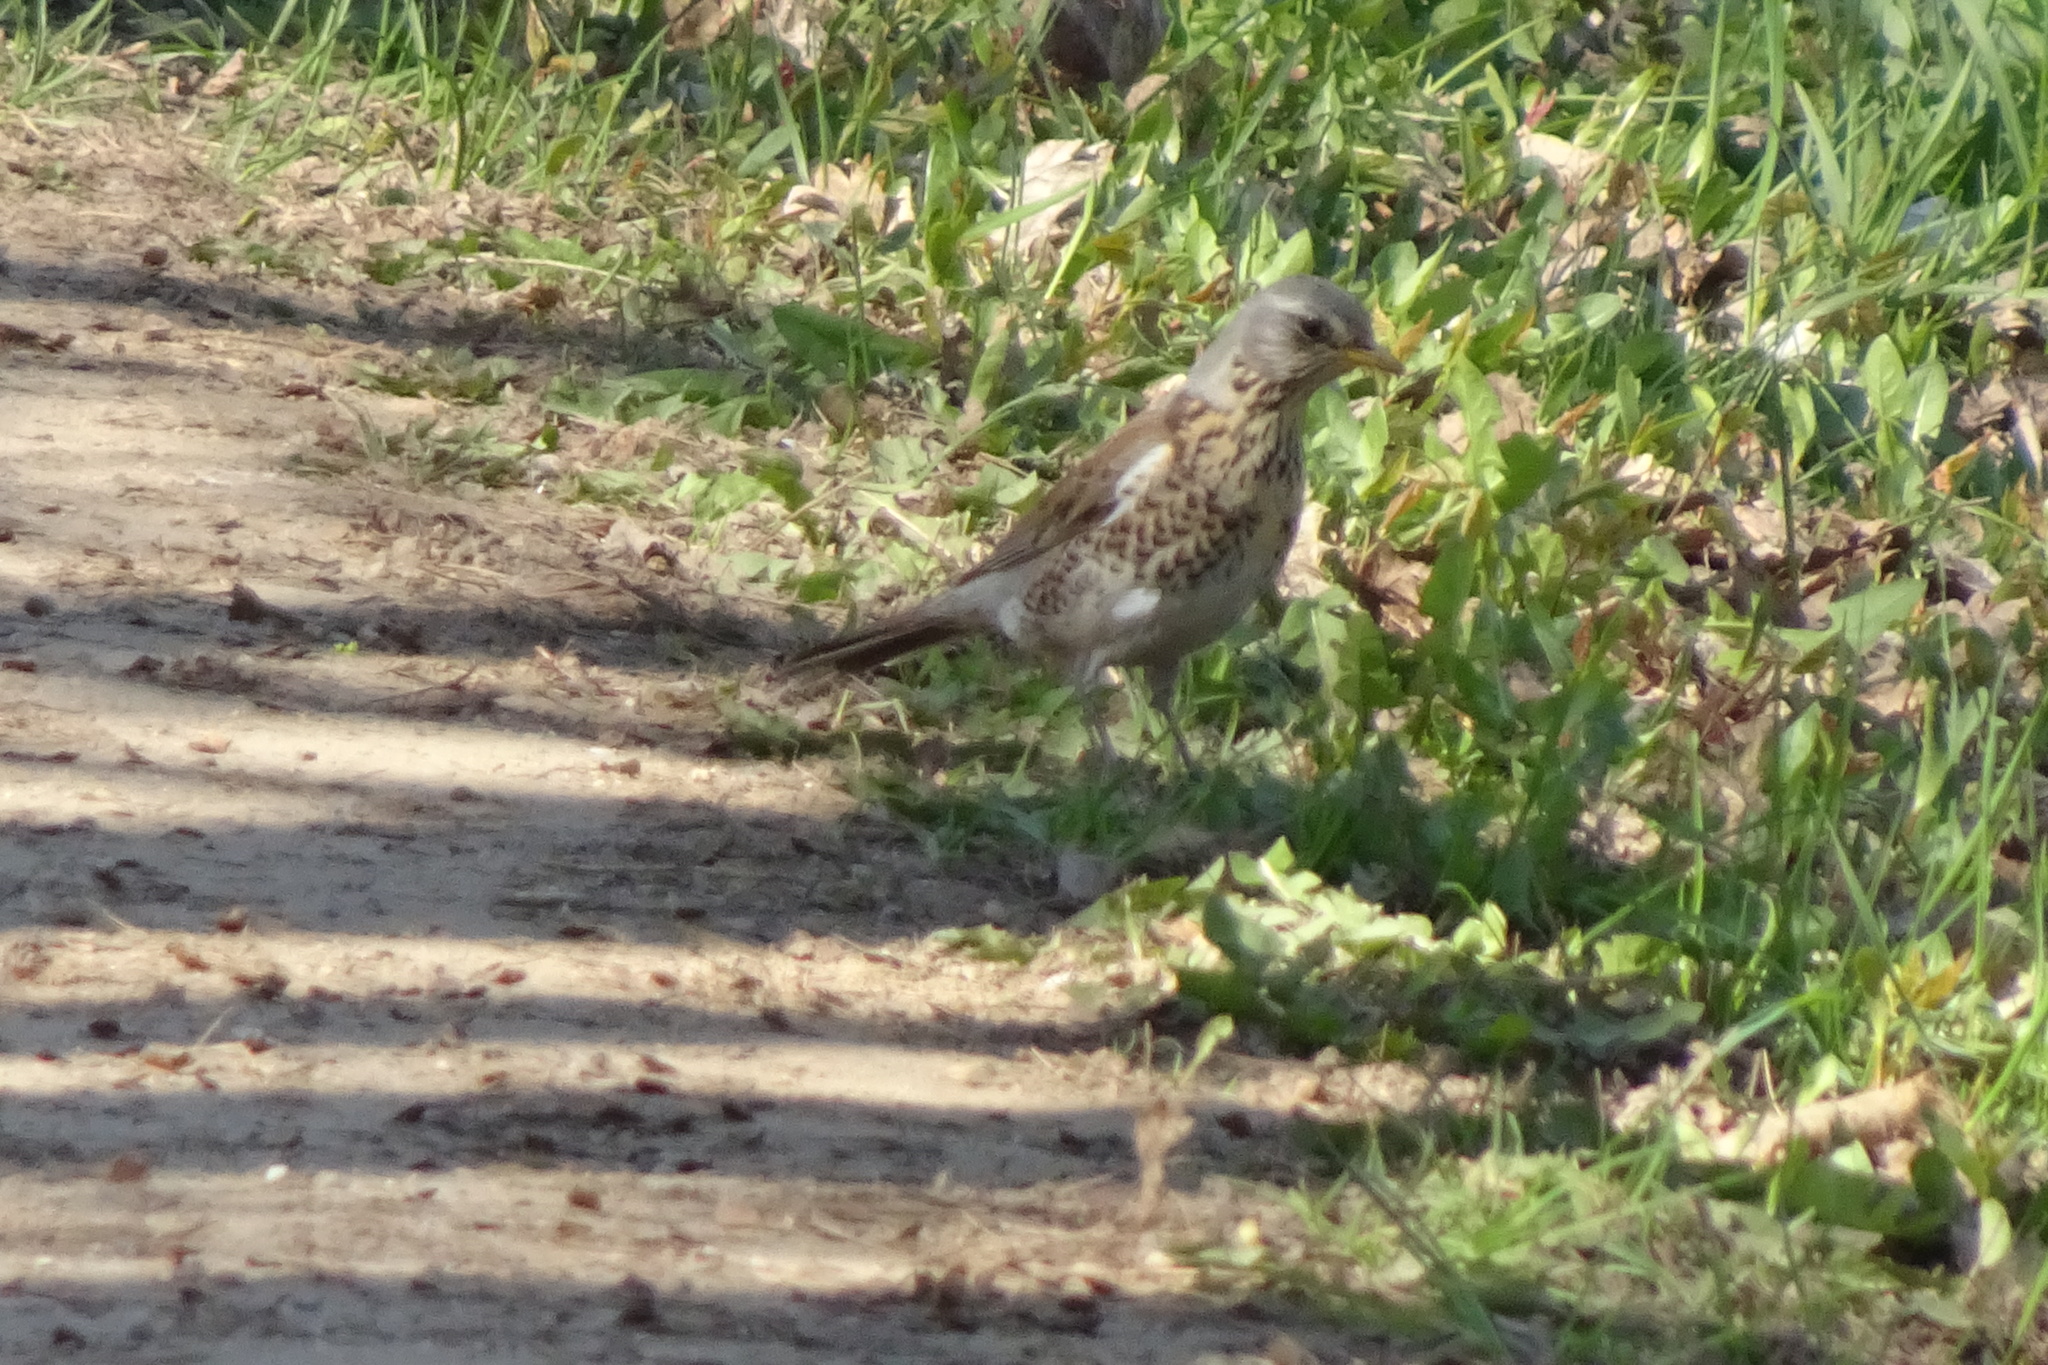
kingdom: Animalia
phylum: Chordata
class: Aves
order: Passeriformes
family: Turdidae
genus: Turdus
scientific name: Turdus pilaris
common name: Fieldfare
